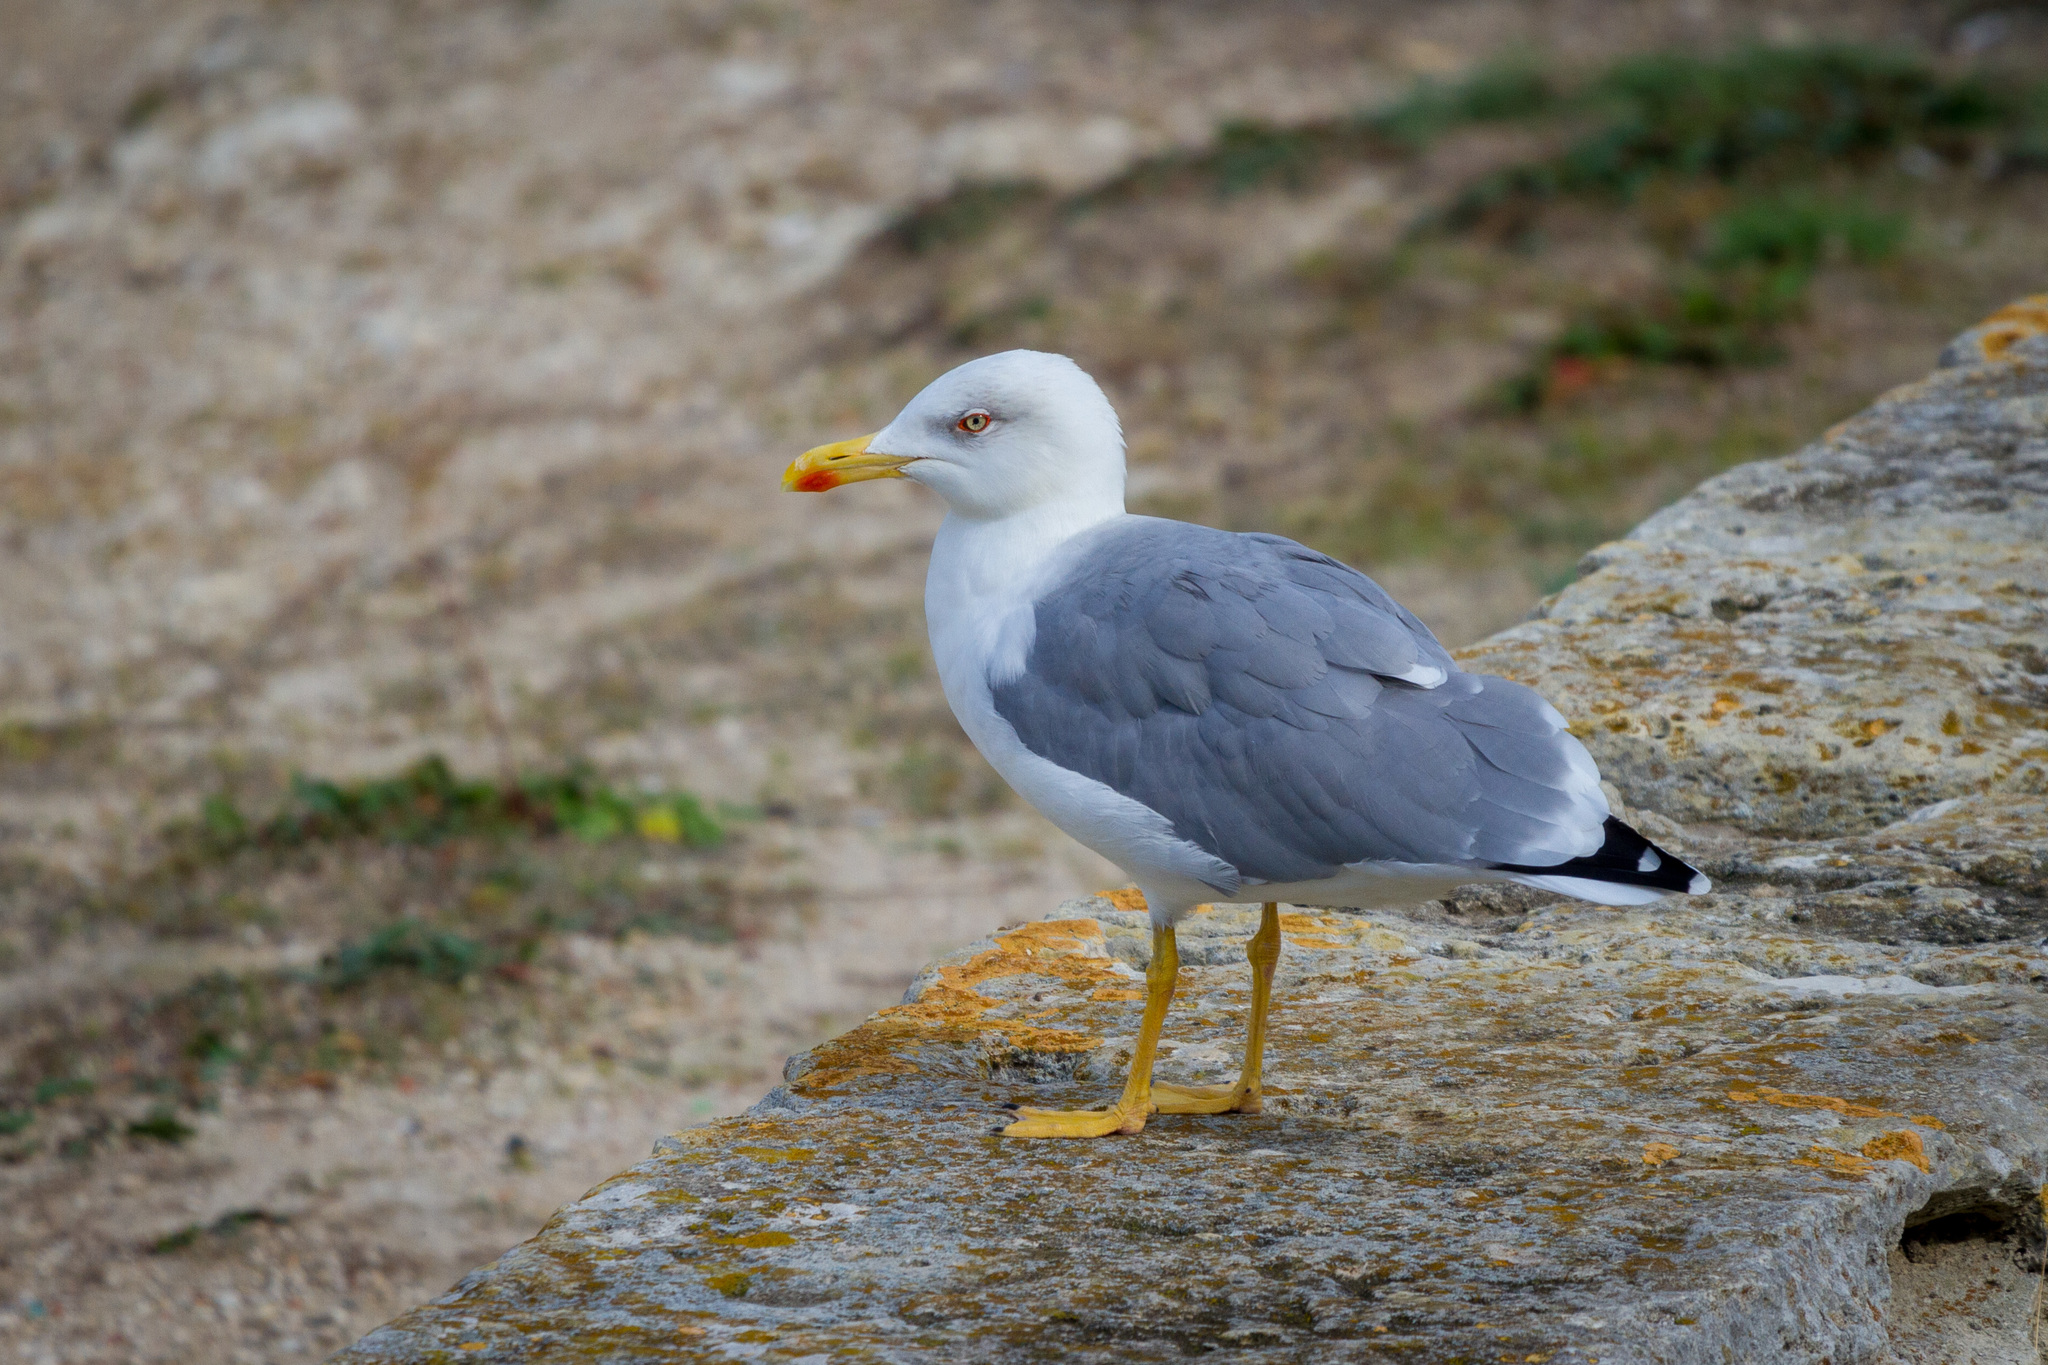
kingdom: Animalia
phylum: Chordata
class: Aves
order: Charadriiformes
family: Laridae
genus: Larus
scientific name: Larus michahellis
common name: Yellow-legged gull
